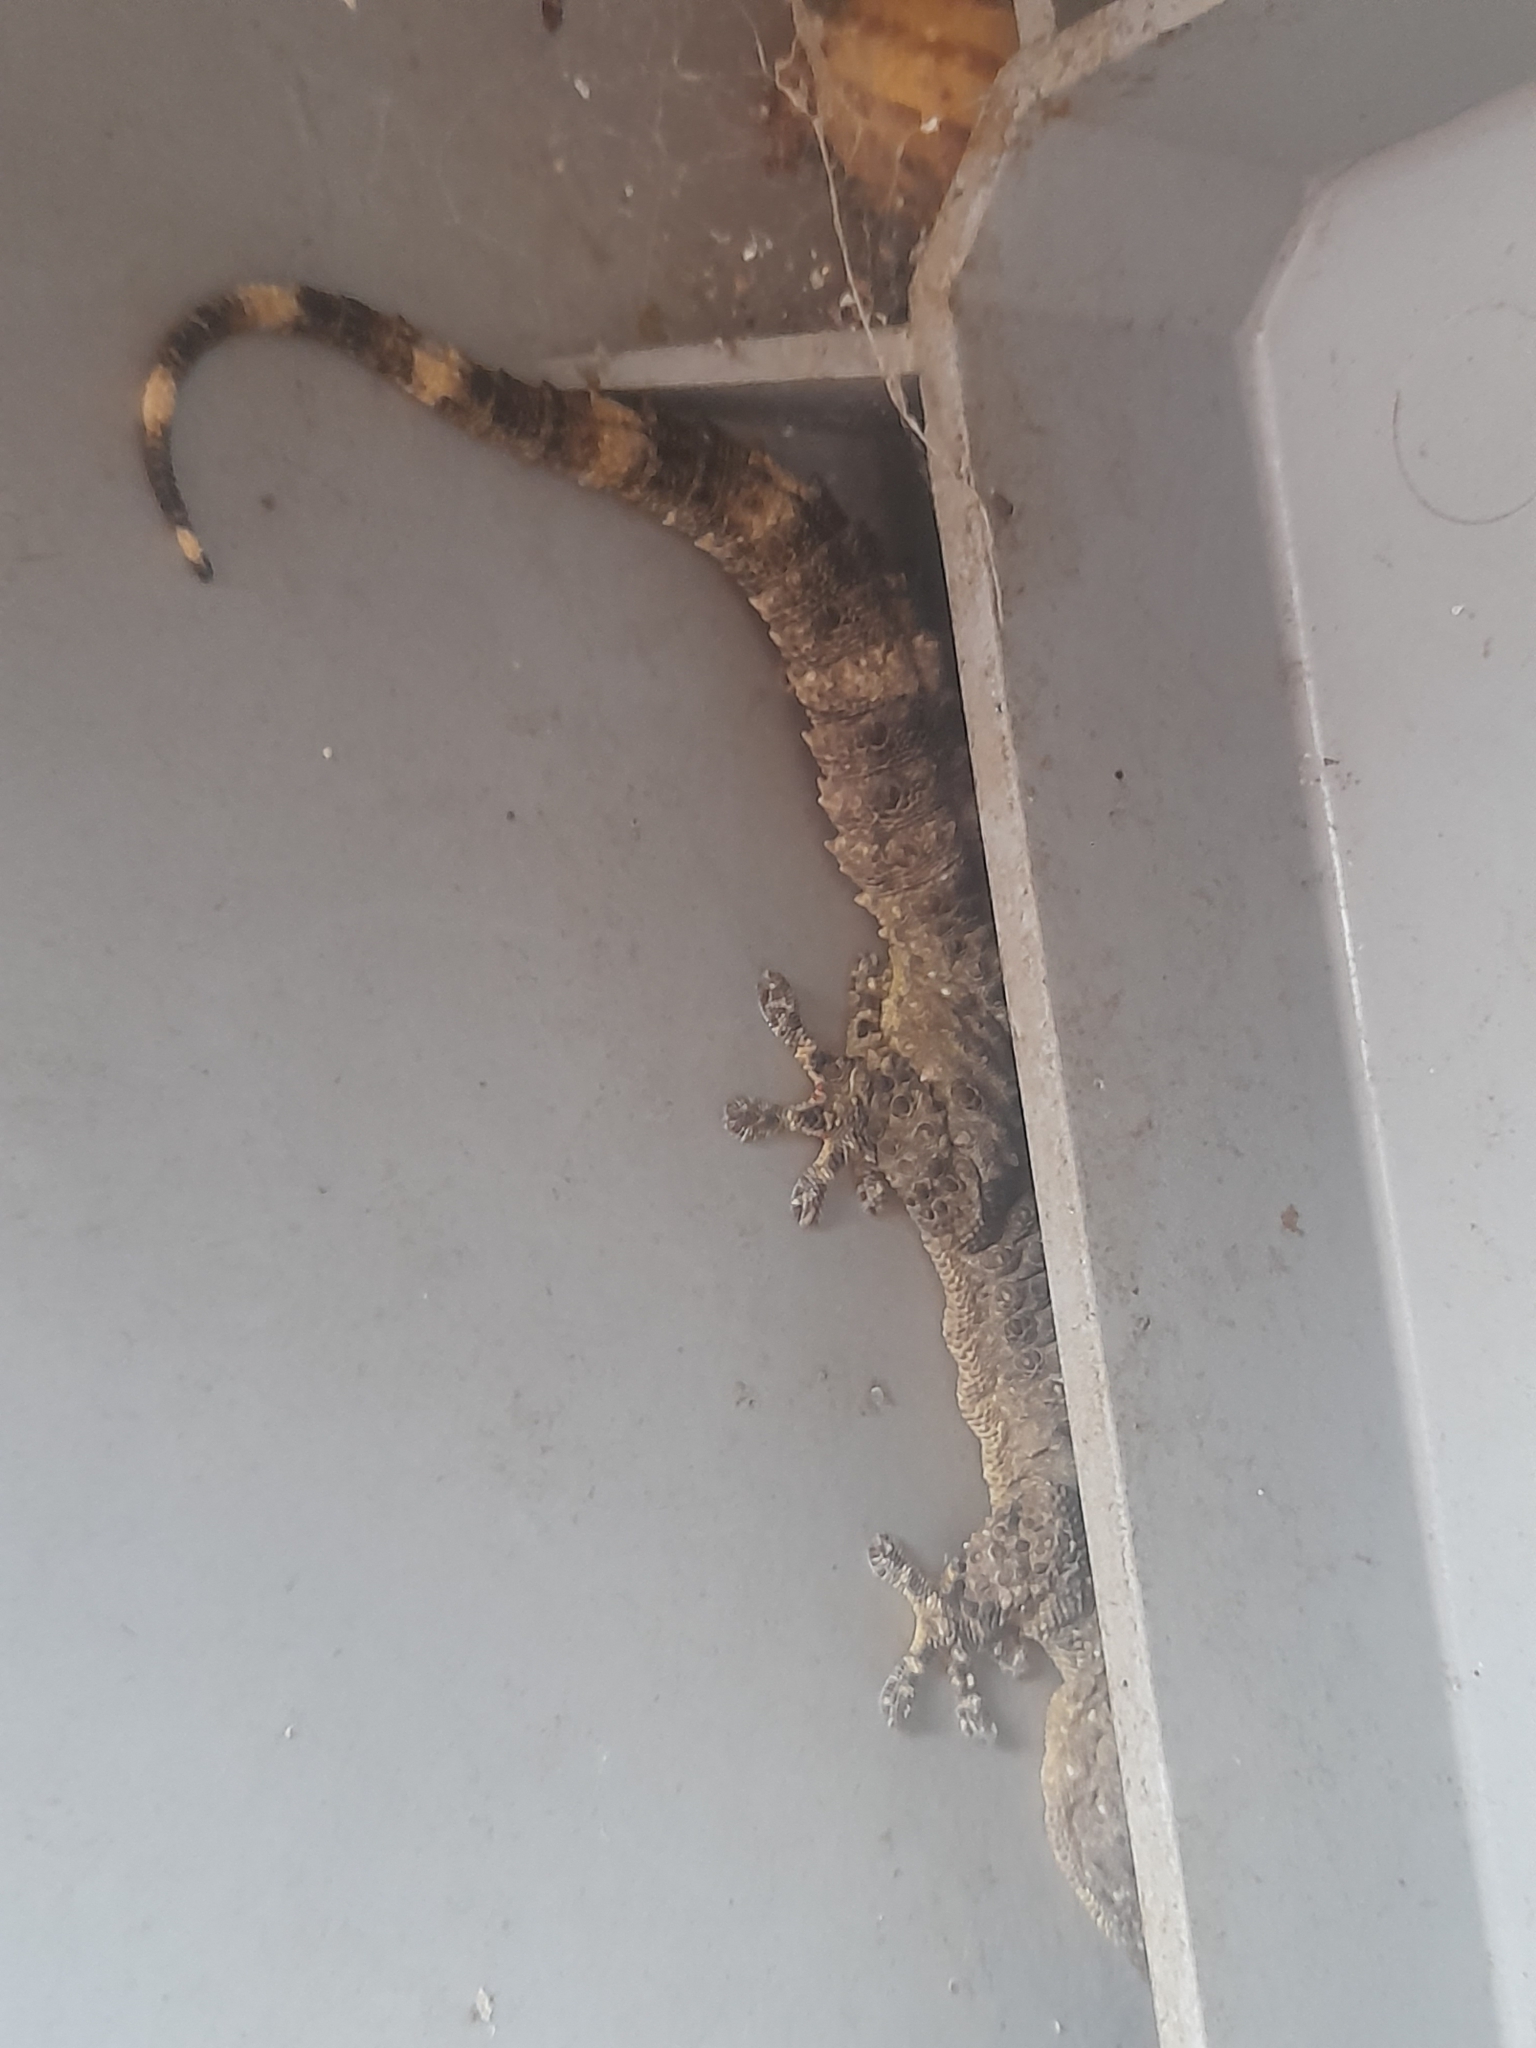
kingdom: Animalia
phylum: Chordata
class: Squamata
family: Phyllodactylidae
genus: Tarentola
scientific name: Tarentola mauritanica
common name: Moorish gecko
